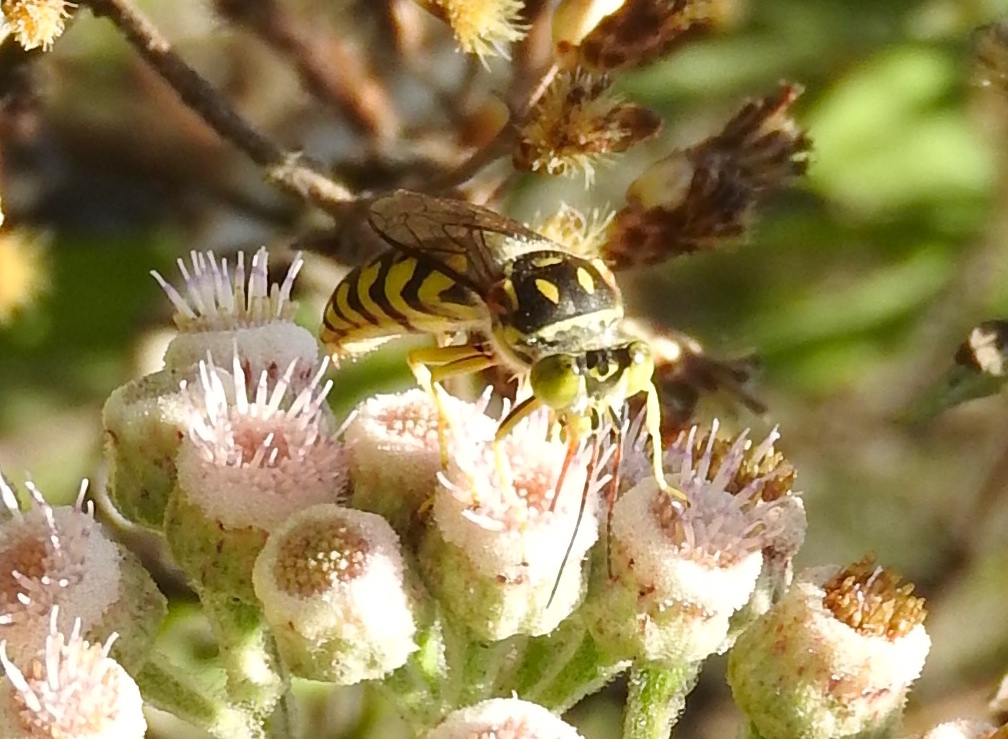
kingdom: Animalia
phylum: Arthropoda
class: Insecta
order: Hymenoptera
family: Crabronidae
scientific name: Crabronidae
